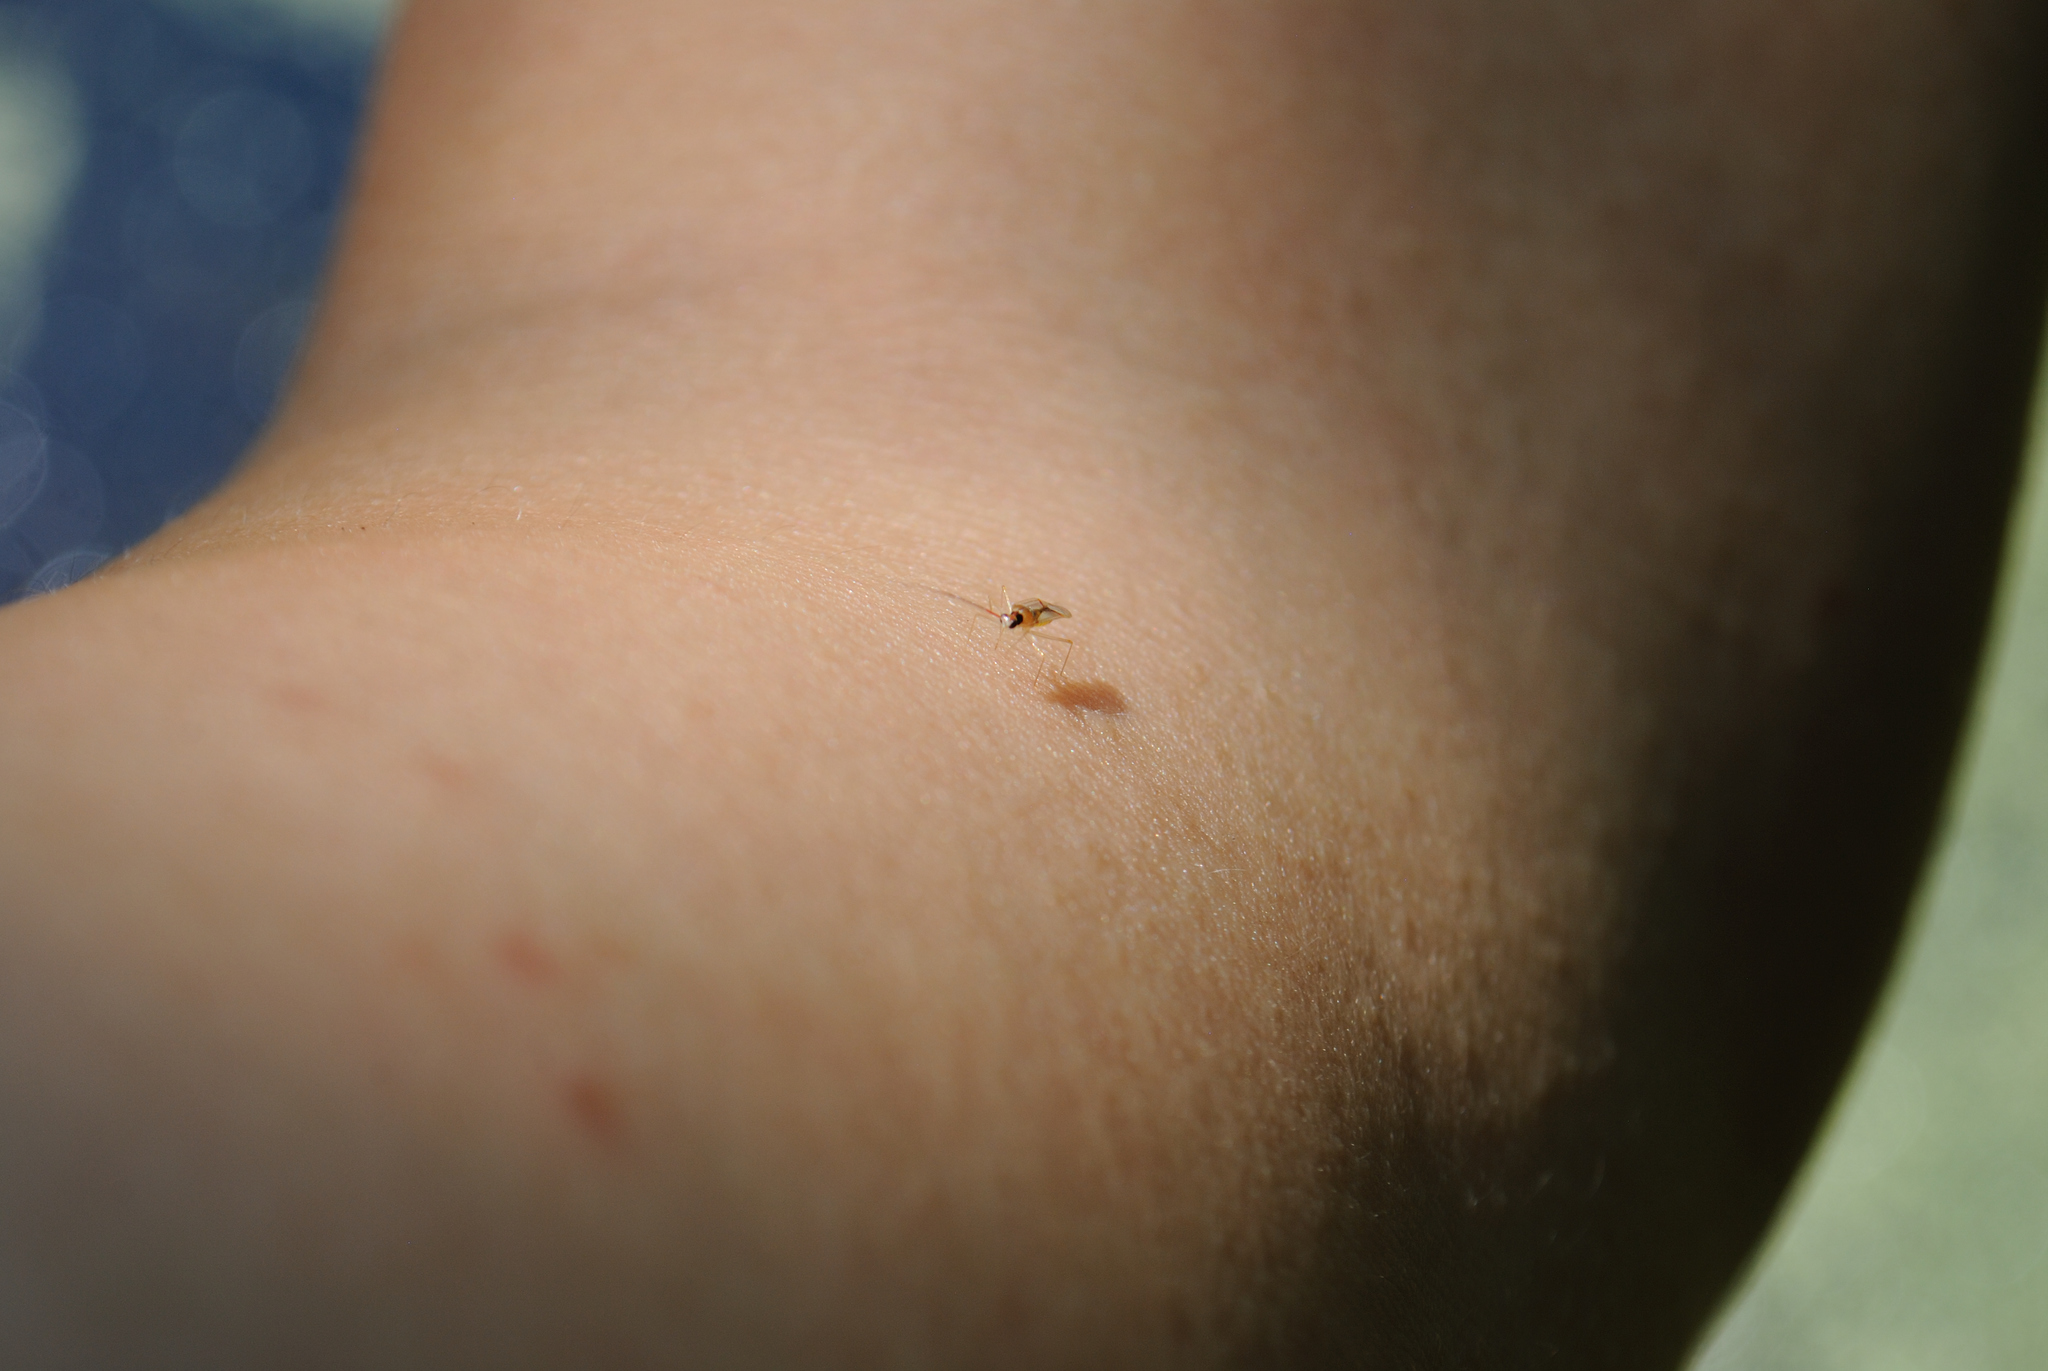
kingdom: Animalia
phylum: Arthropoda
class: Insecta
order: Hemiptera
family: Miridae
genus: Hyaliodes
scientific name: Hyaliodes harti
